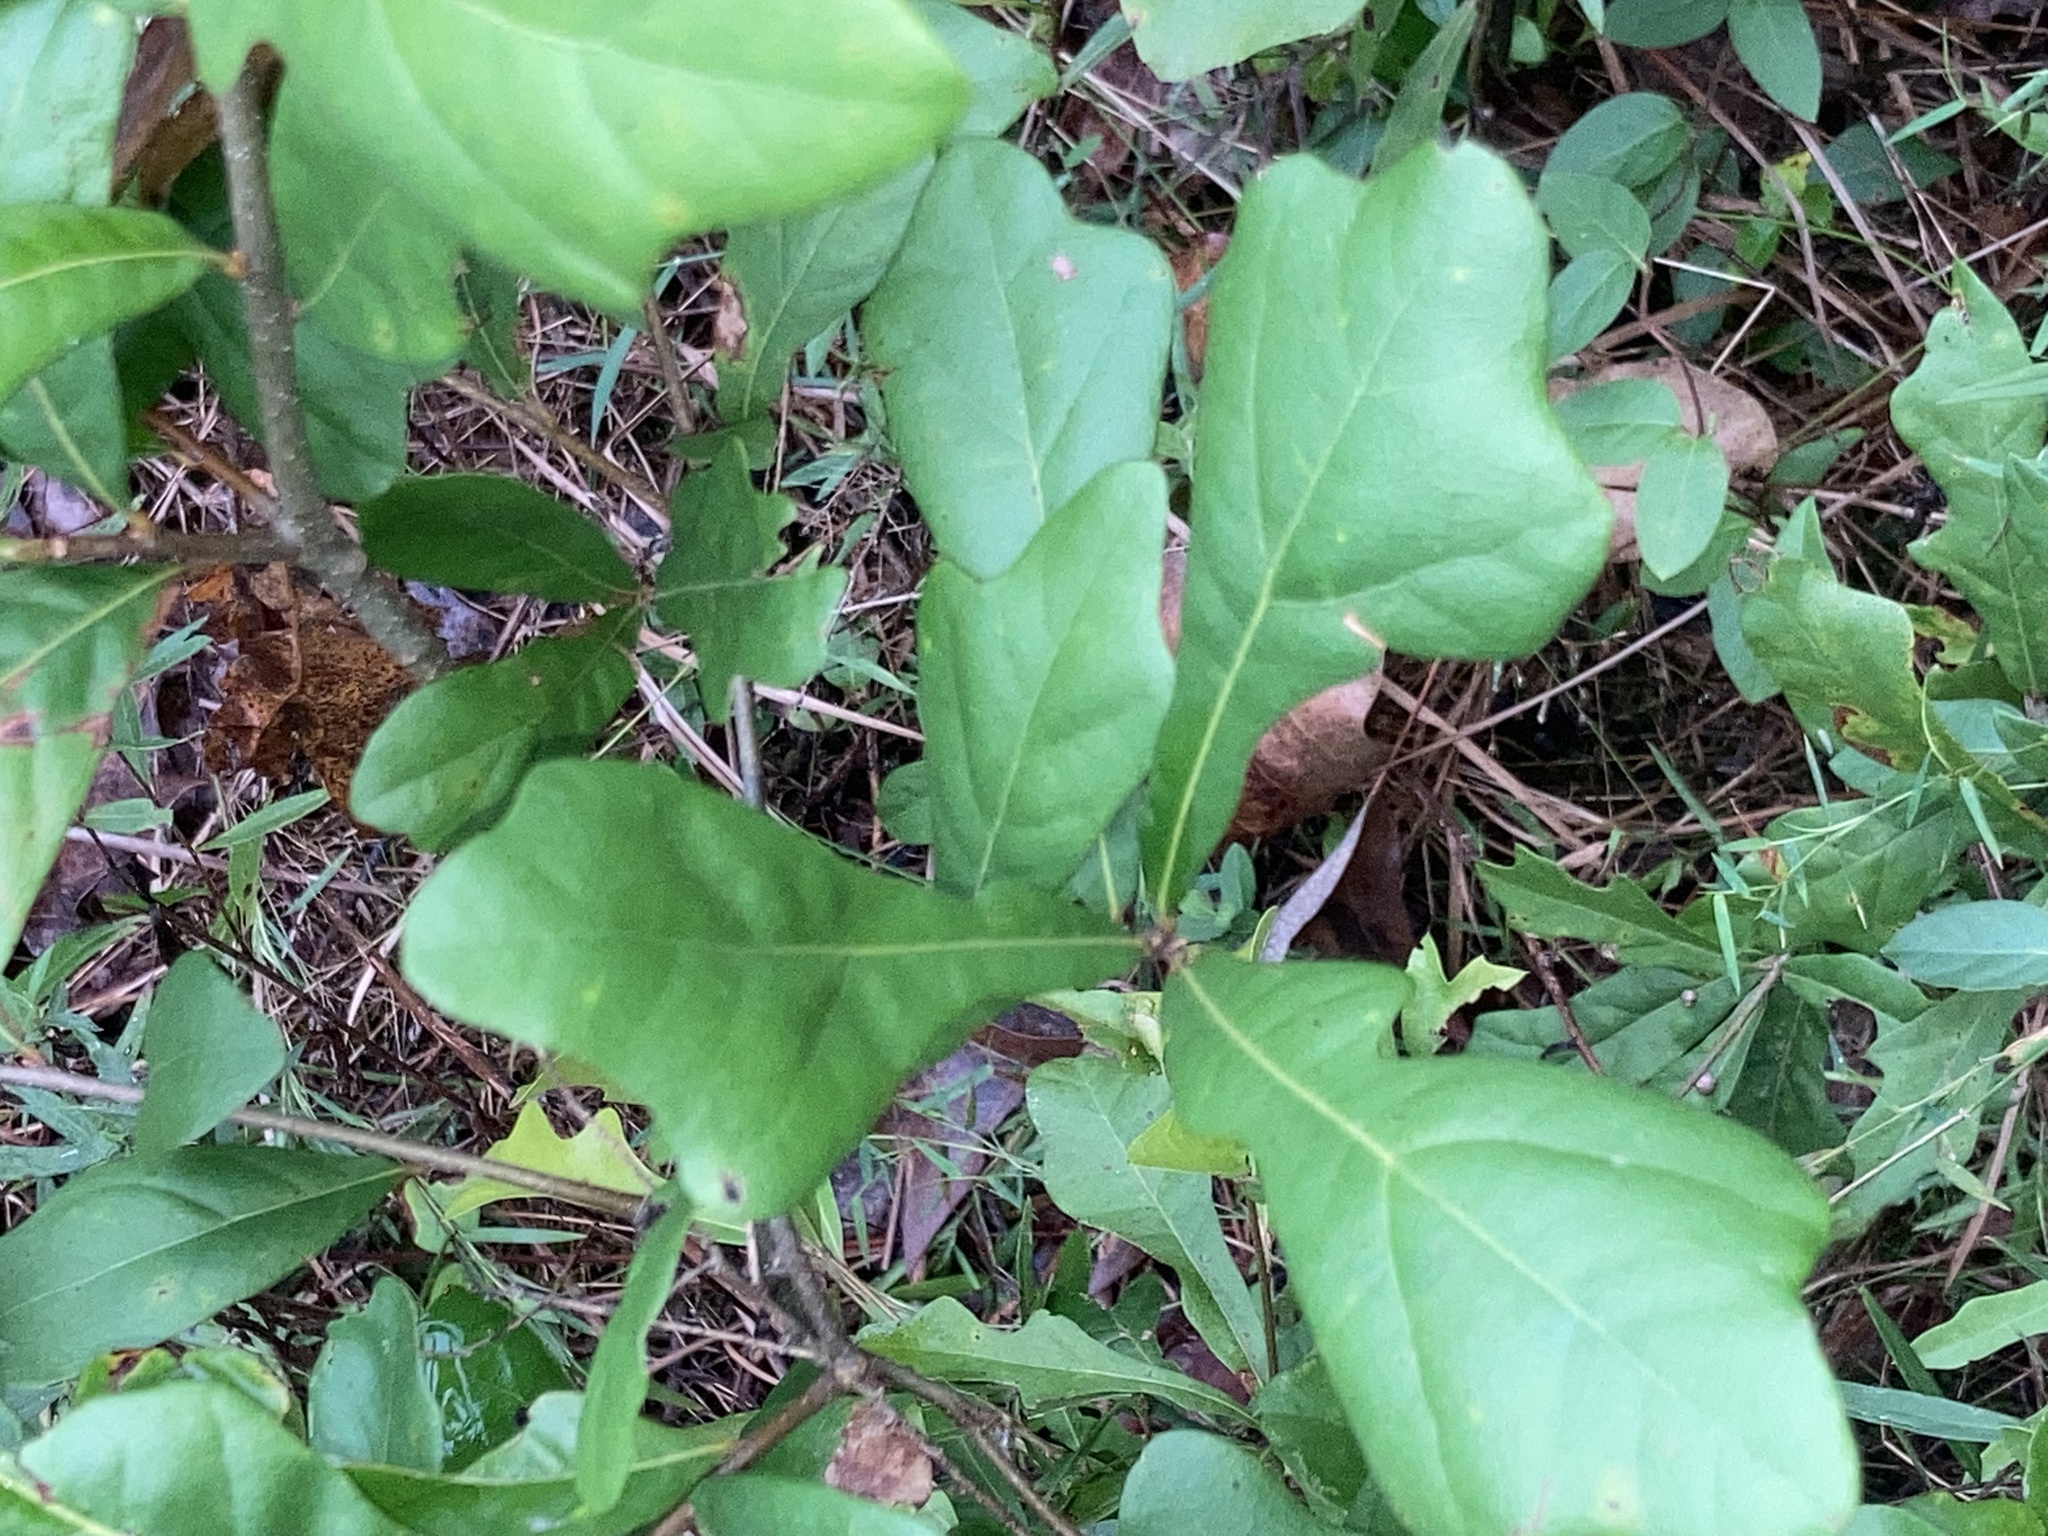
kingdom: Plantae
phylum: Tracheophyta
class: Magnoliopsida
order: Fagales
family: Fagaceae
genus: Quercus
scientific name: Quercus nigra
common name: Water oak
